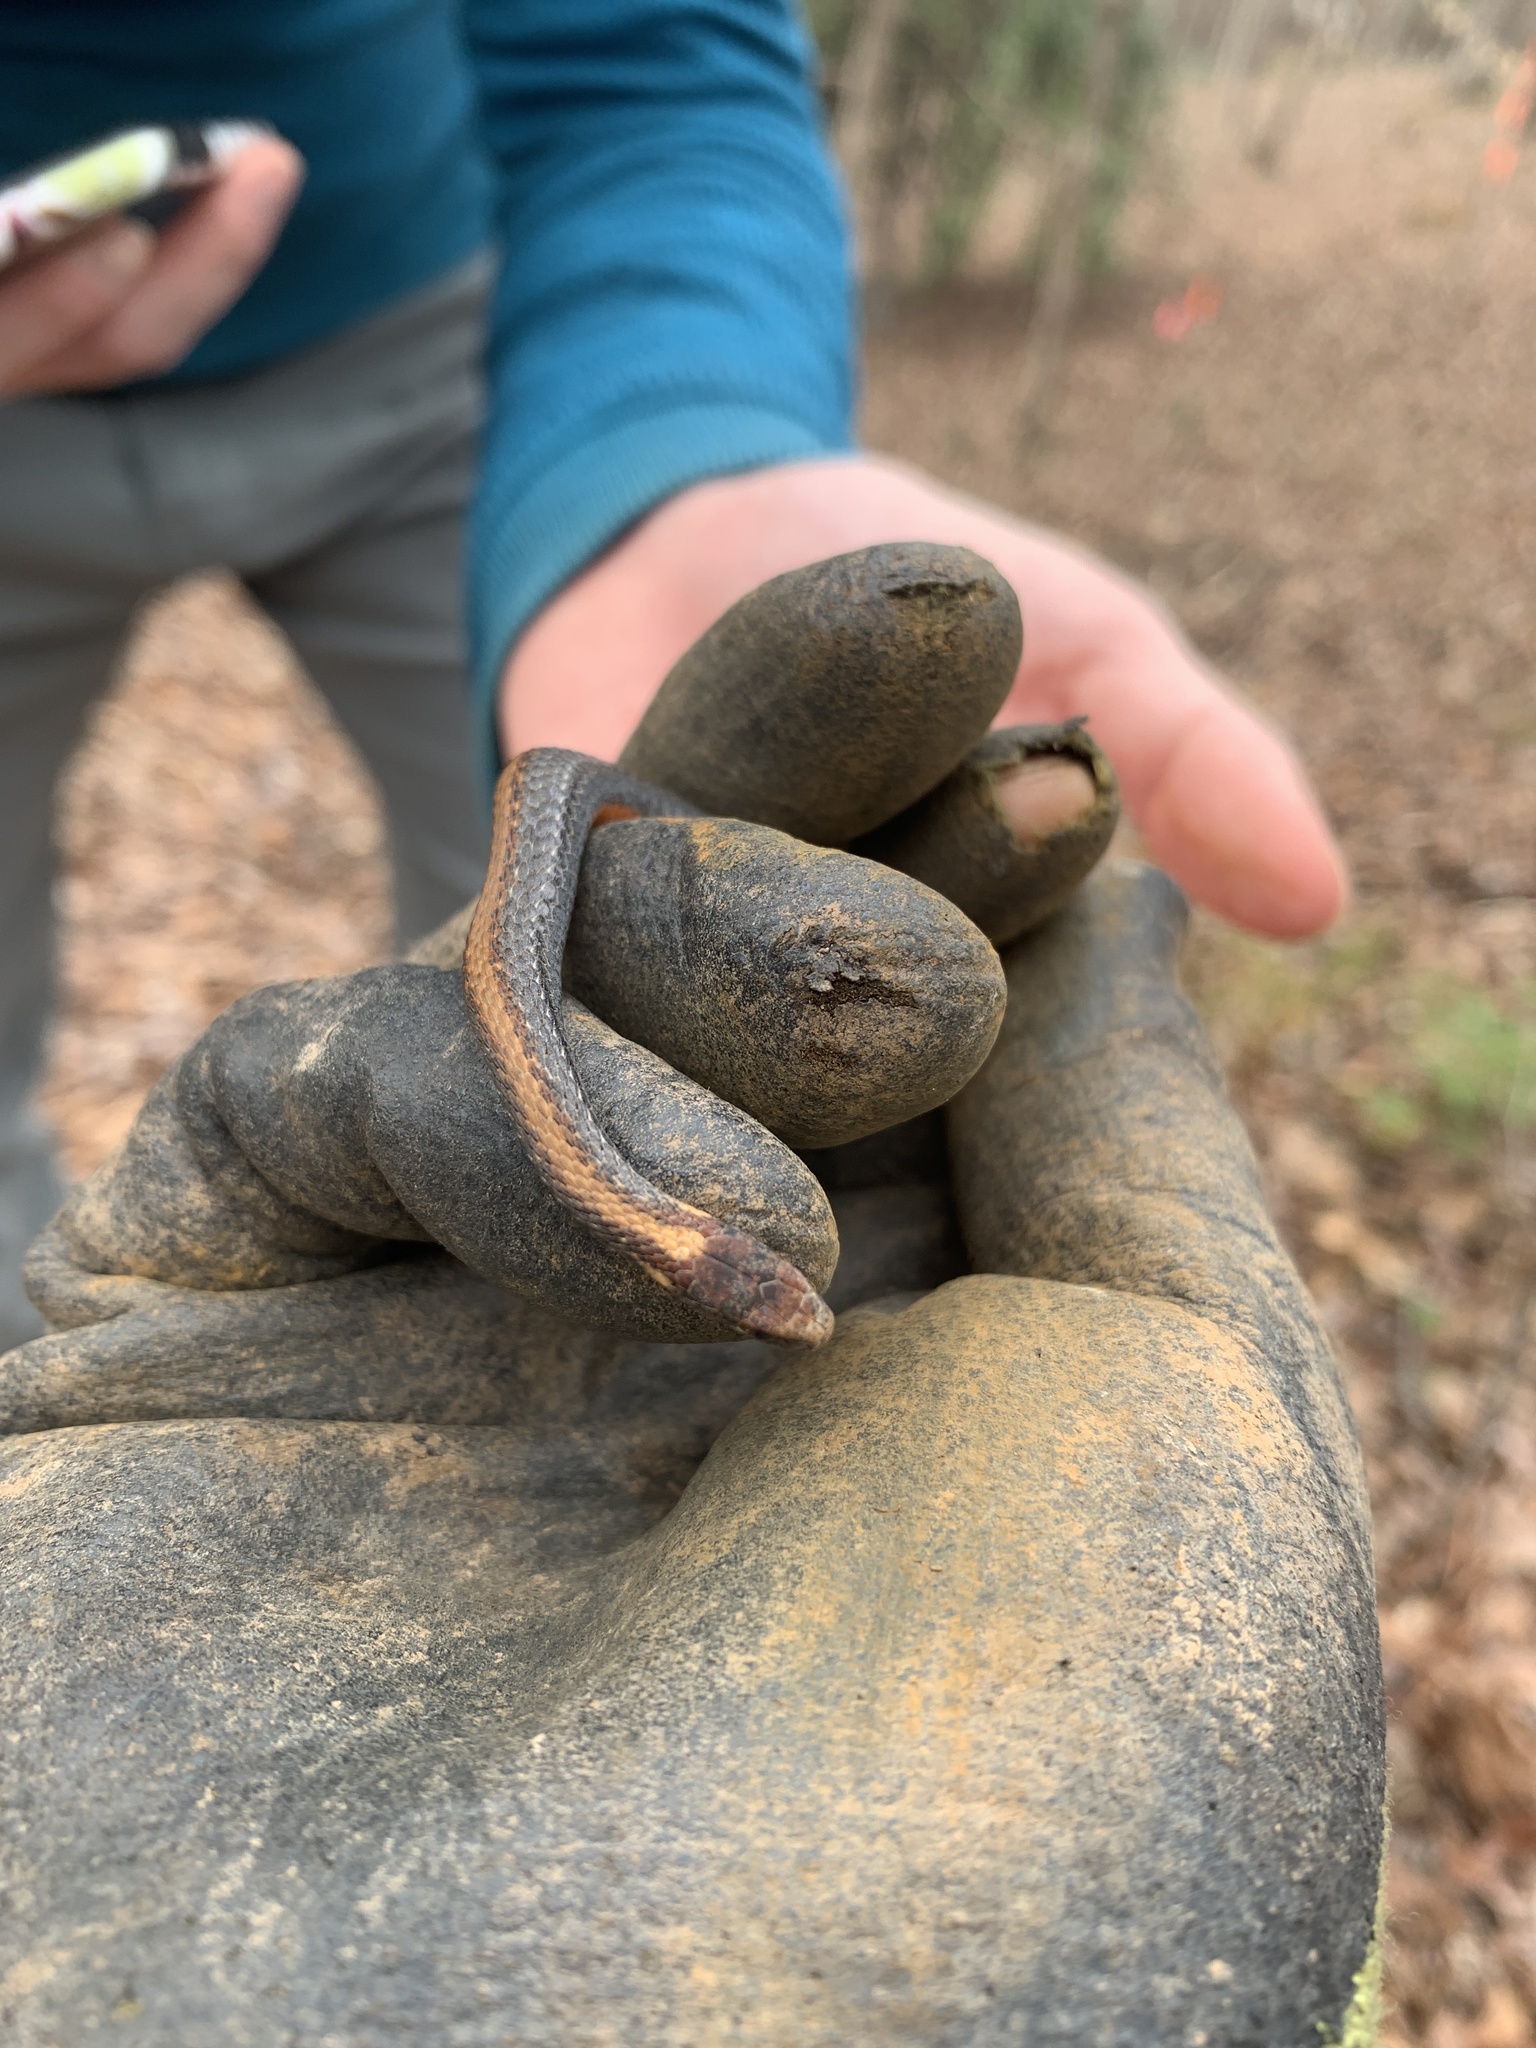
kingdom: Animalia
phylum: Chordata
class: Squamata
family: Colubridae
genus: Storeria
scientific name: Storeria occipitomaculata
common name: Redbelly snake
